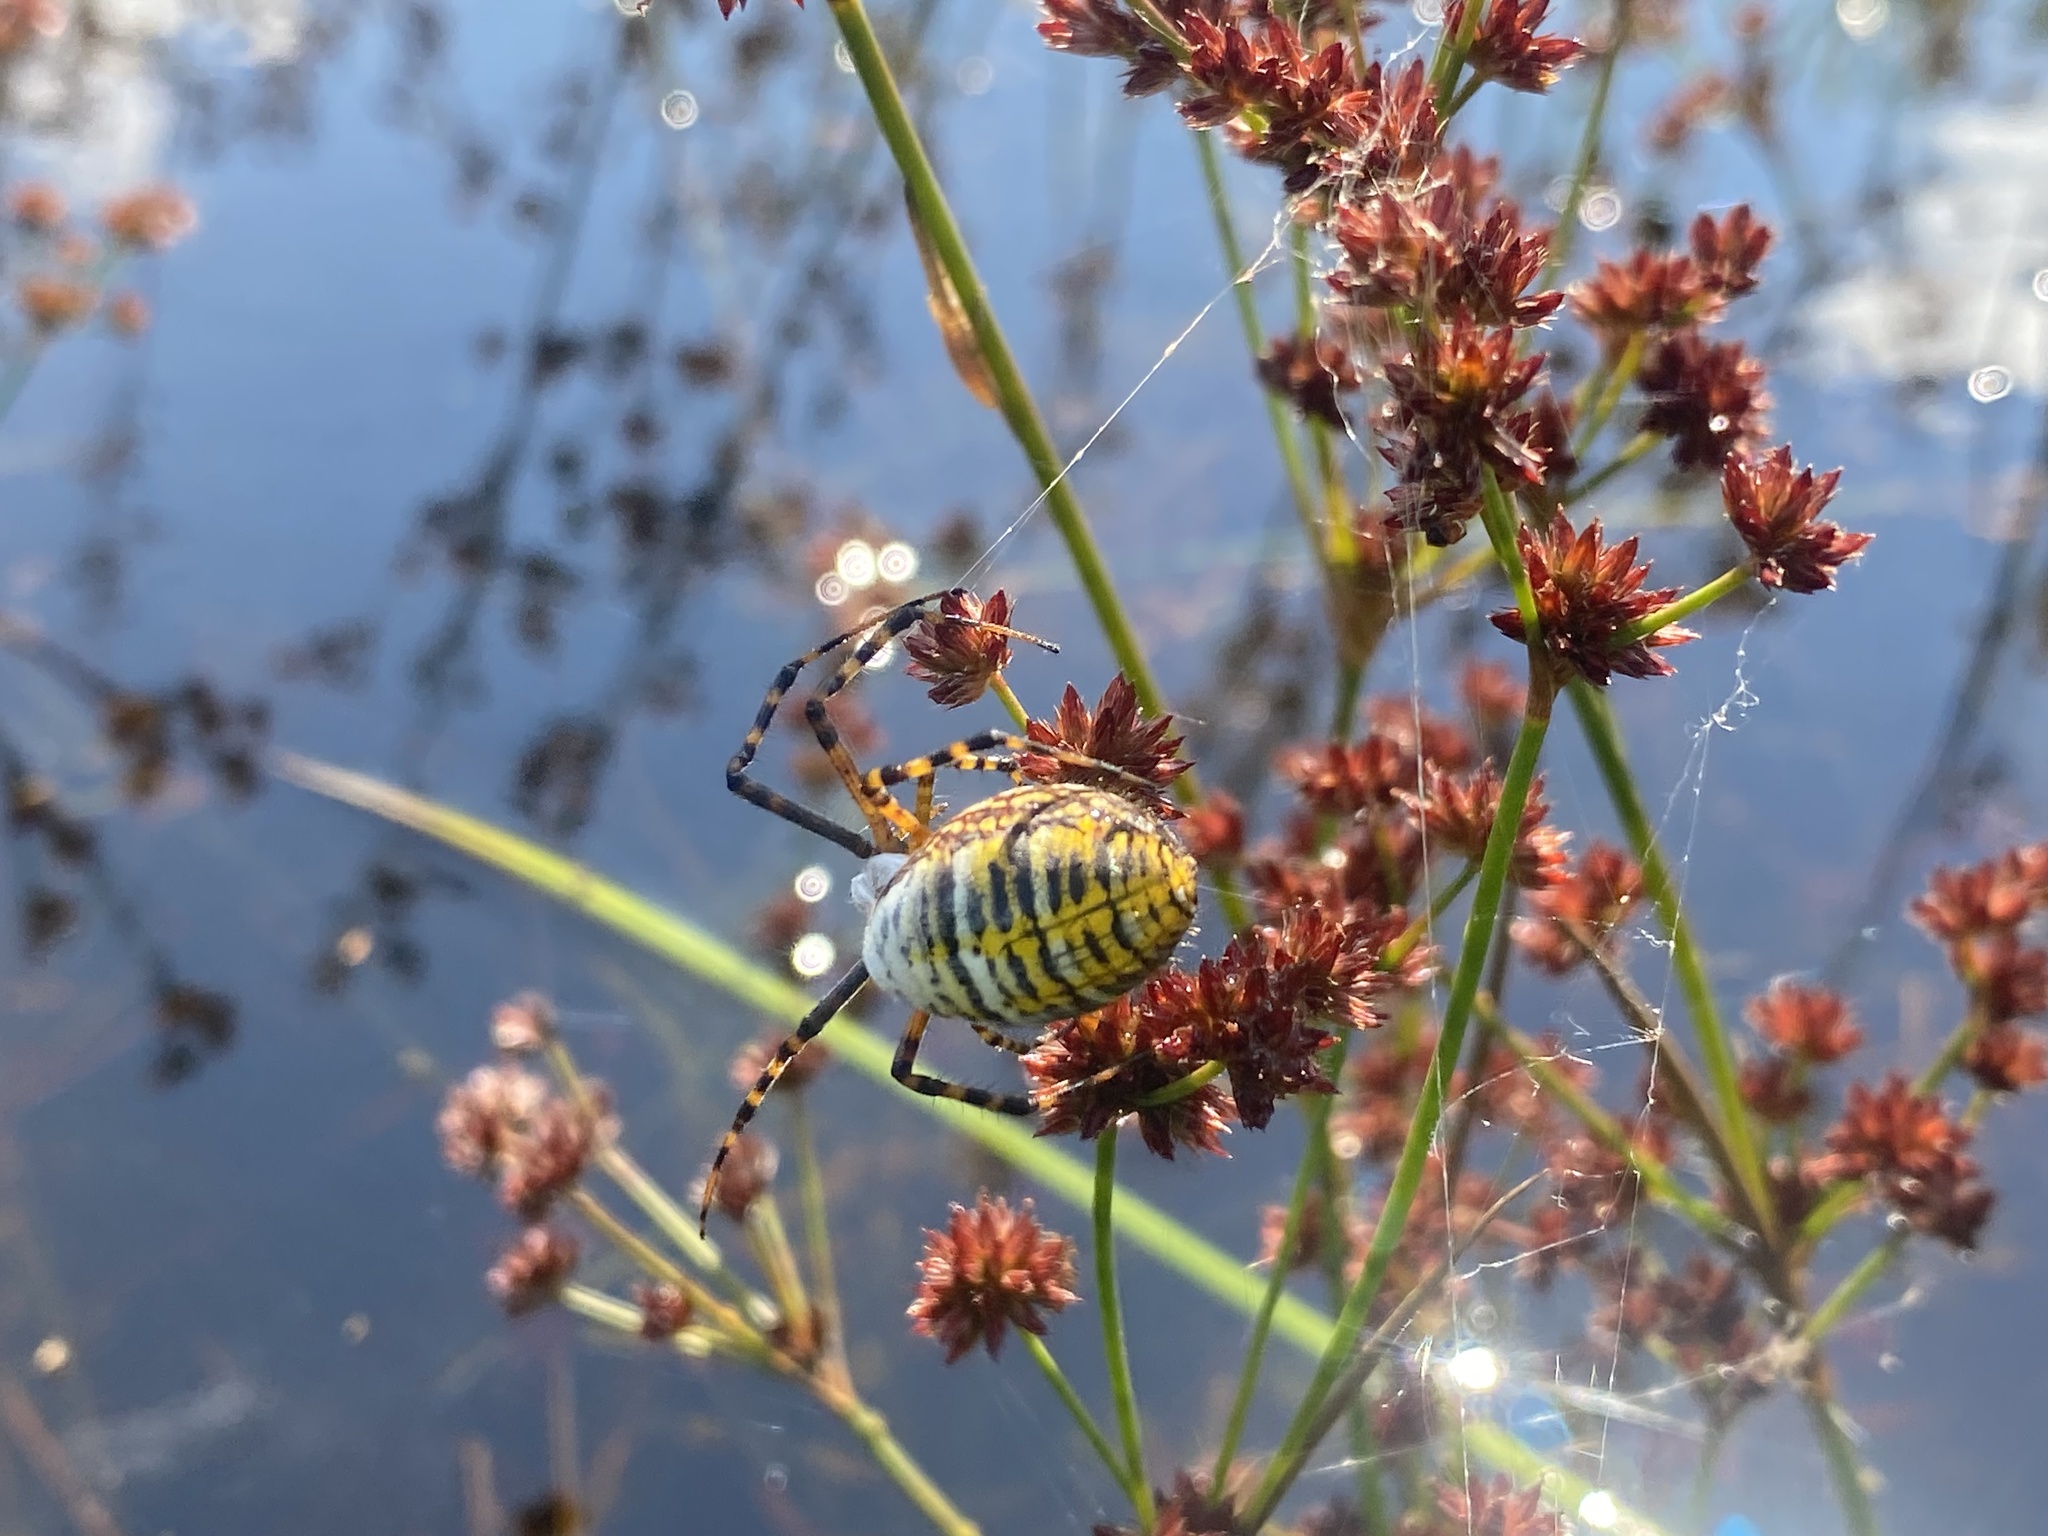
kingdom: Animalia
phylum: Arthropoda
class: Arachnida
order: Araneae
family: Araneidae
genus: Argiope
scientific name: Argiope trifasciata
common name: Banded garden spider
